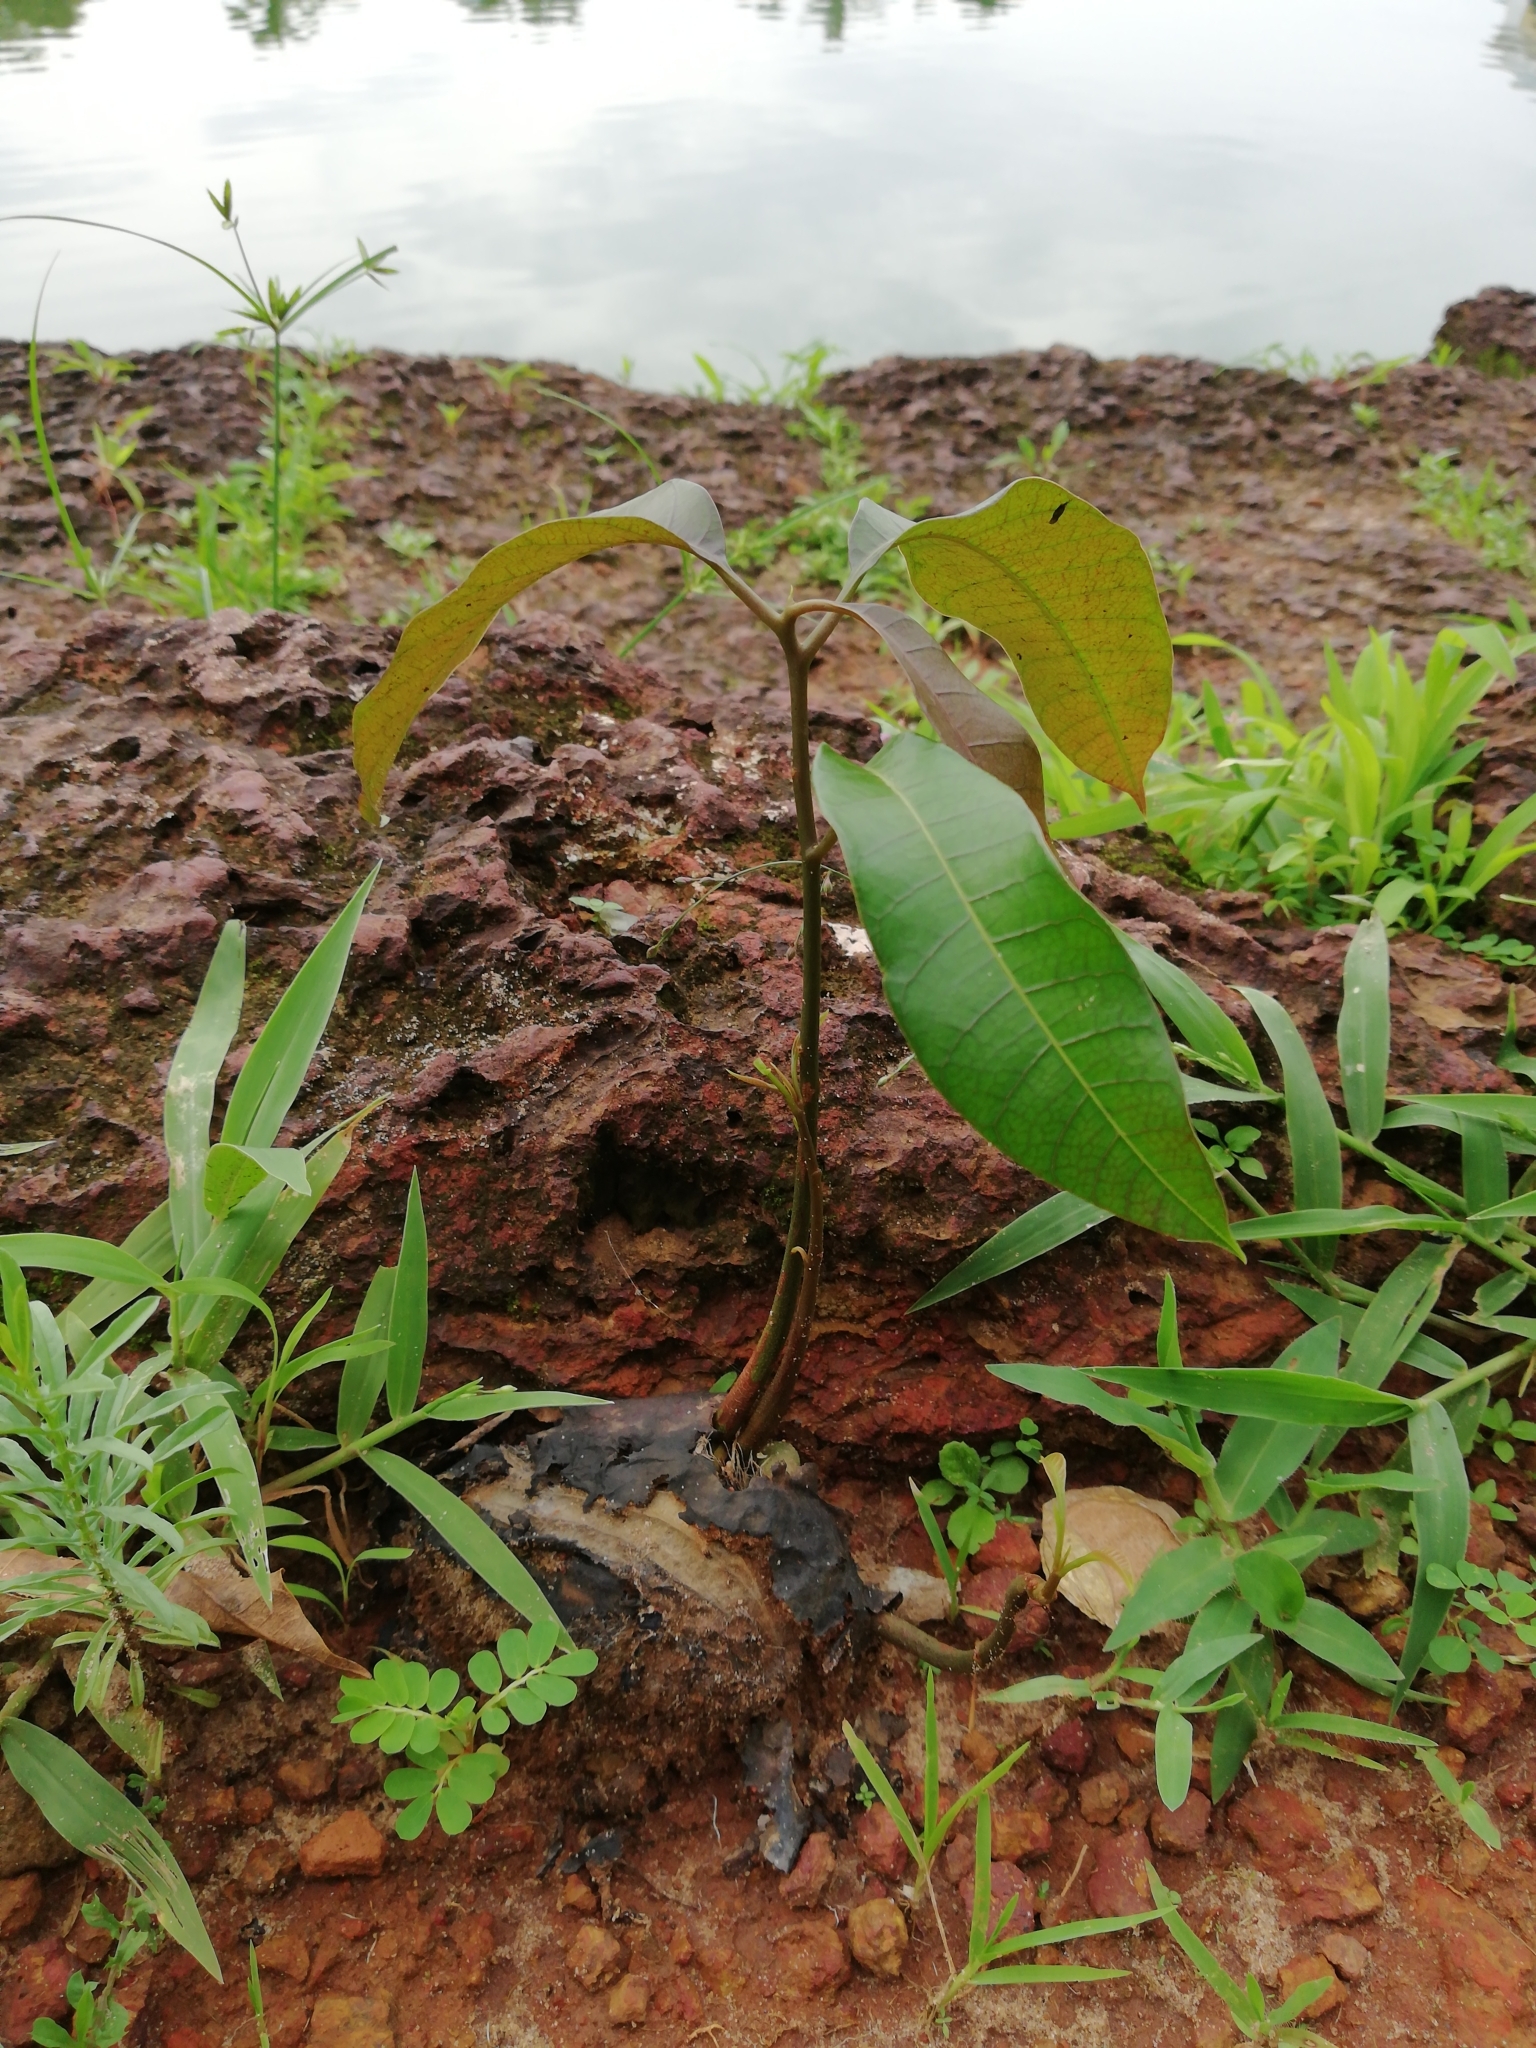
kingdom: Plantae
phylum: Tracheophyta
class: Magnoliopsida
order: Sapindales
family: Anacardiaceae
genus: Mangifera
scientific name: Mangifera indica
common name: Mango
